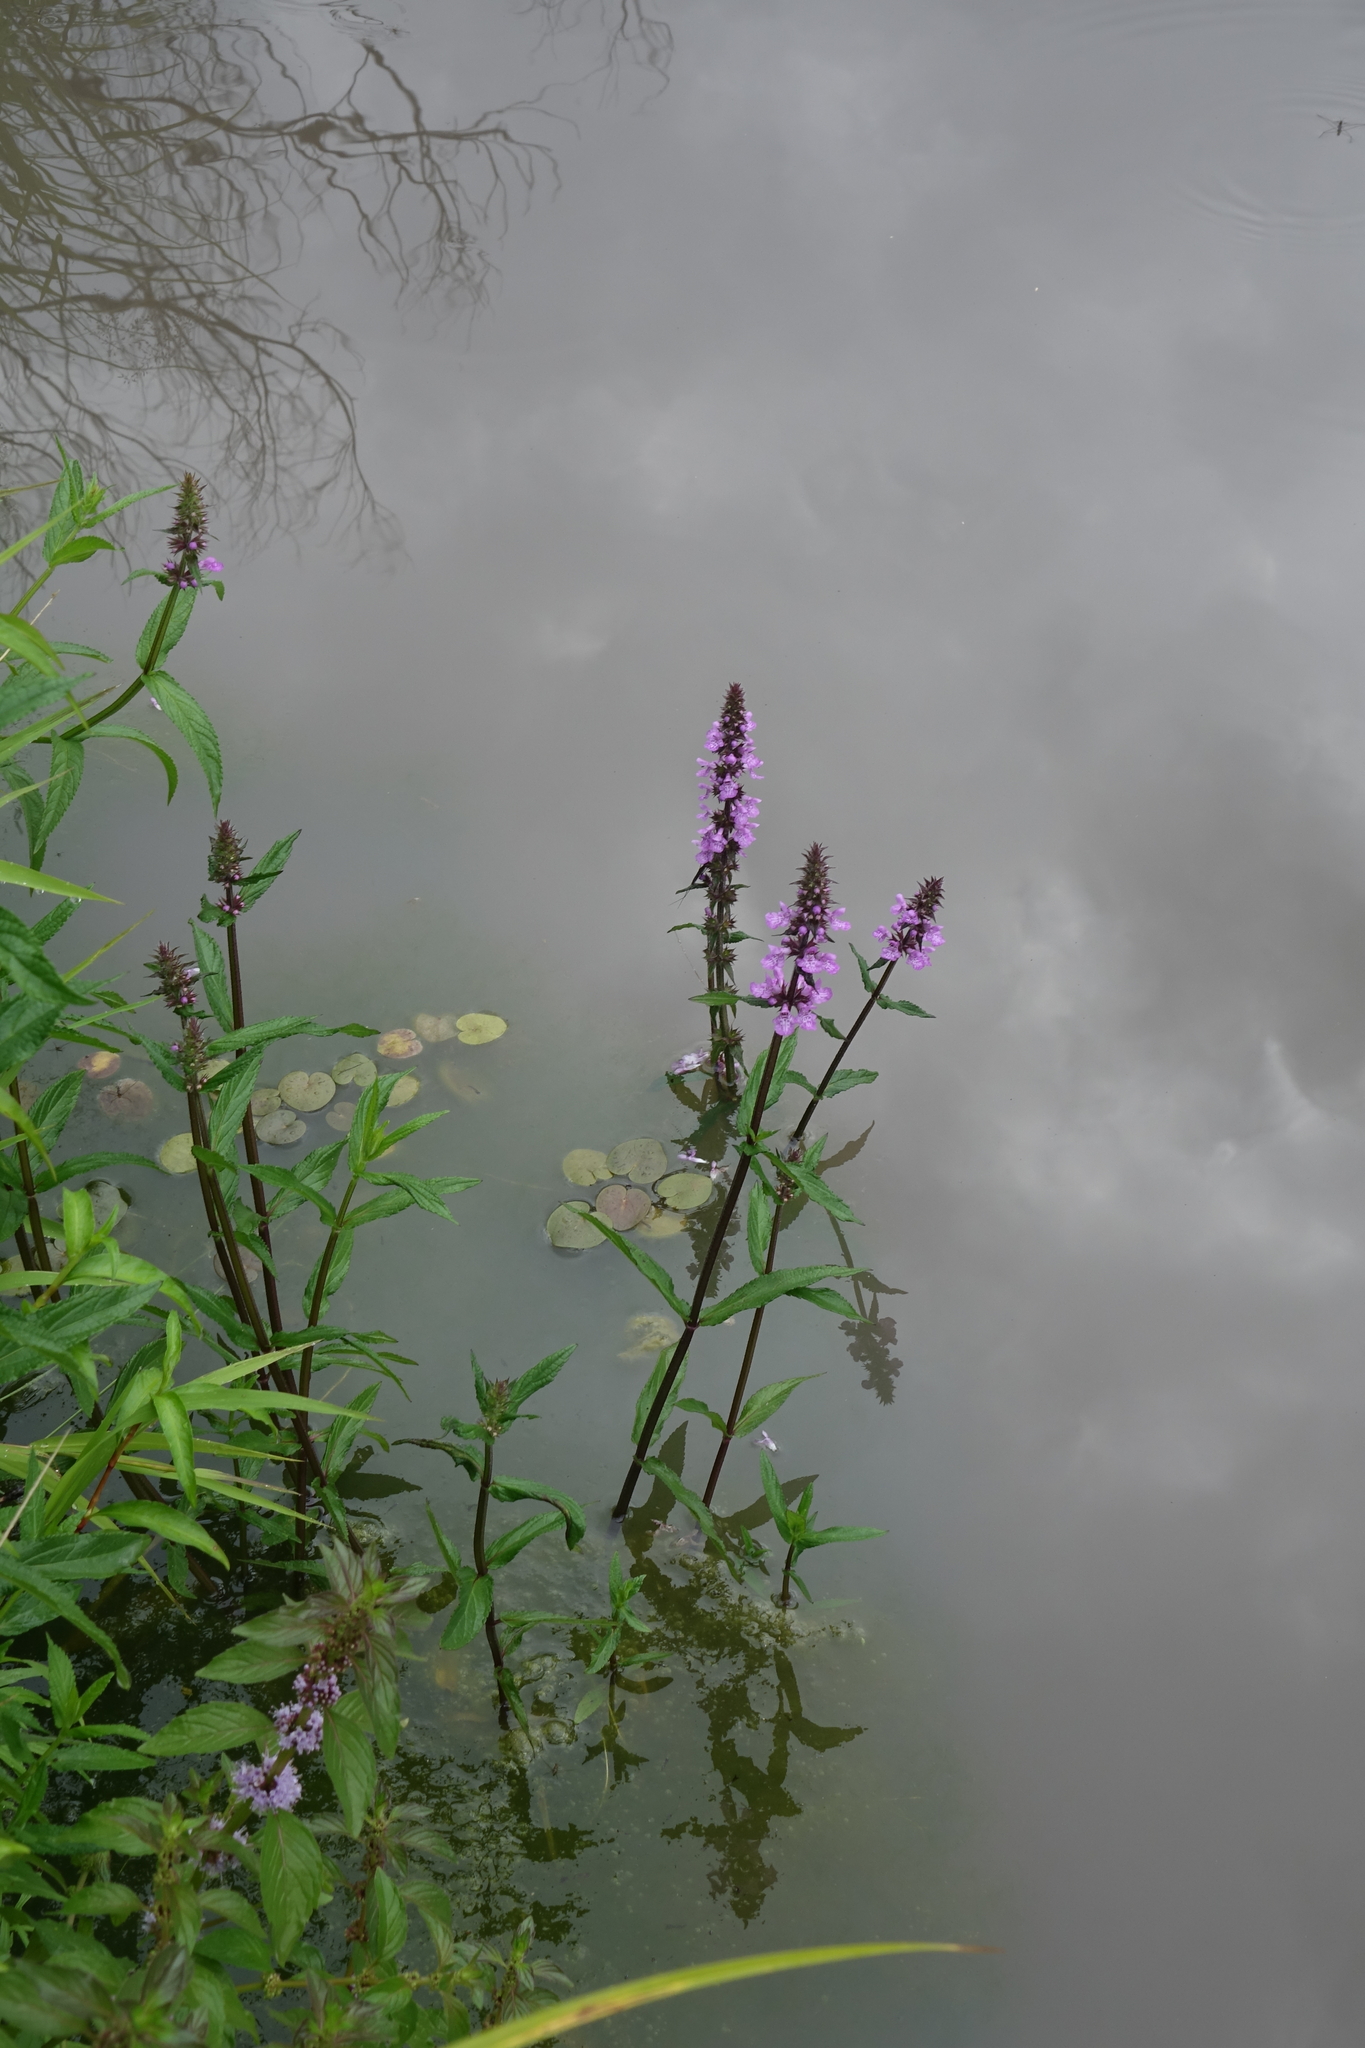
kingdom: Plantae
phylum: Tracheophyta
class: Magnoliopsida
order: Lamiales
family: Lamiaceae
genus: Stachys
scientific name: Stachys palustris
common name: Marsh woundwort
